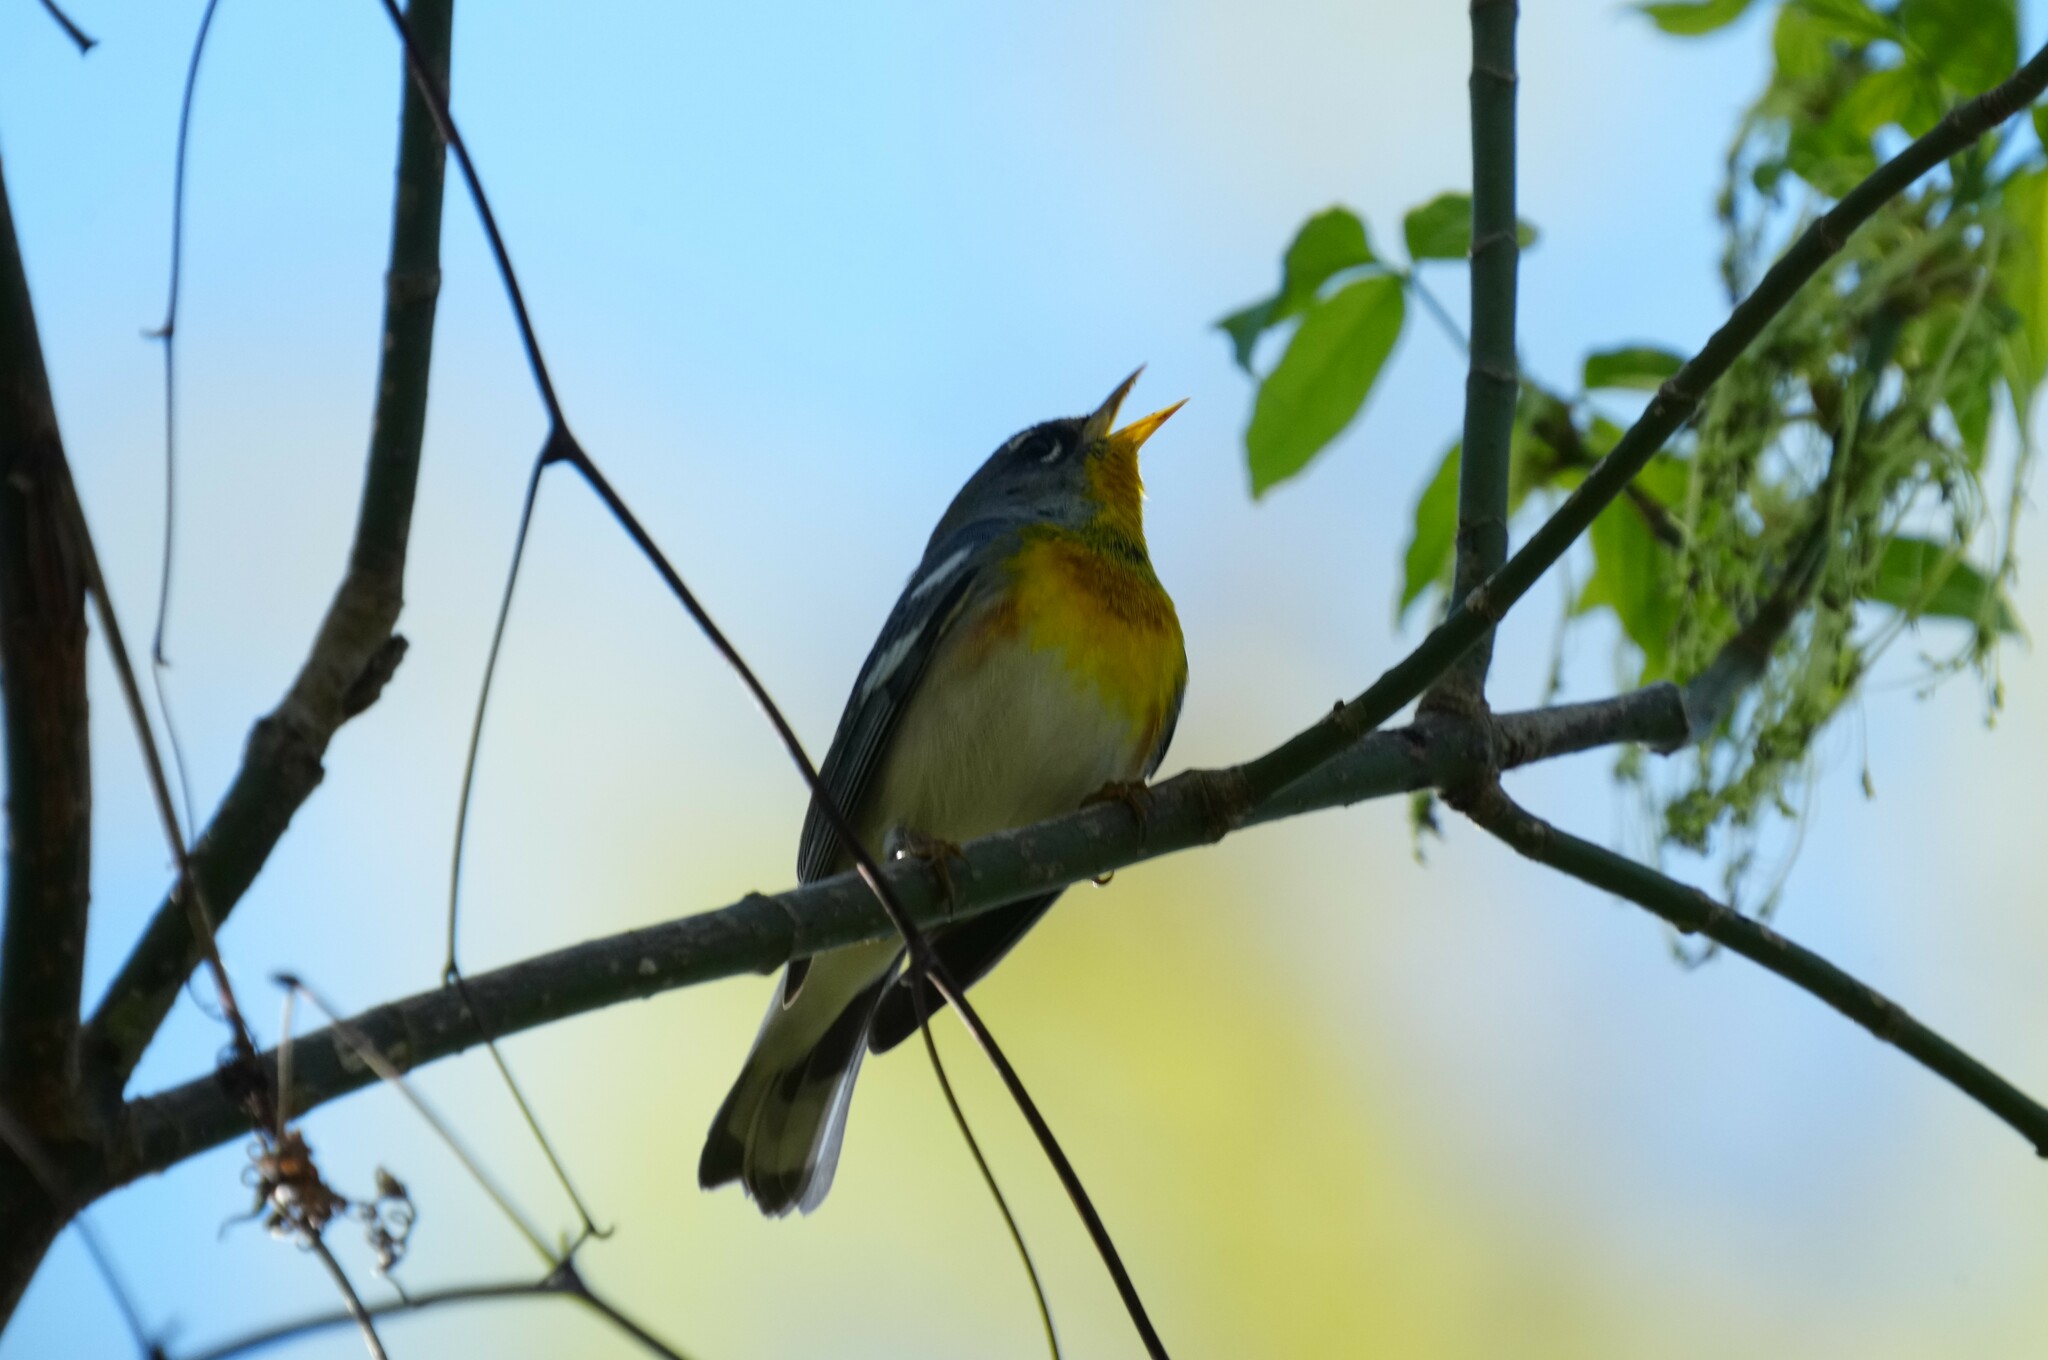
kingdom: Animalia
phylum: Chordata
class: Aves
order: Passeriformes
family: Parulidae
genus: Setophaga
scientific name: Setophaga americana
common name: Northern parula
